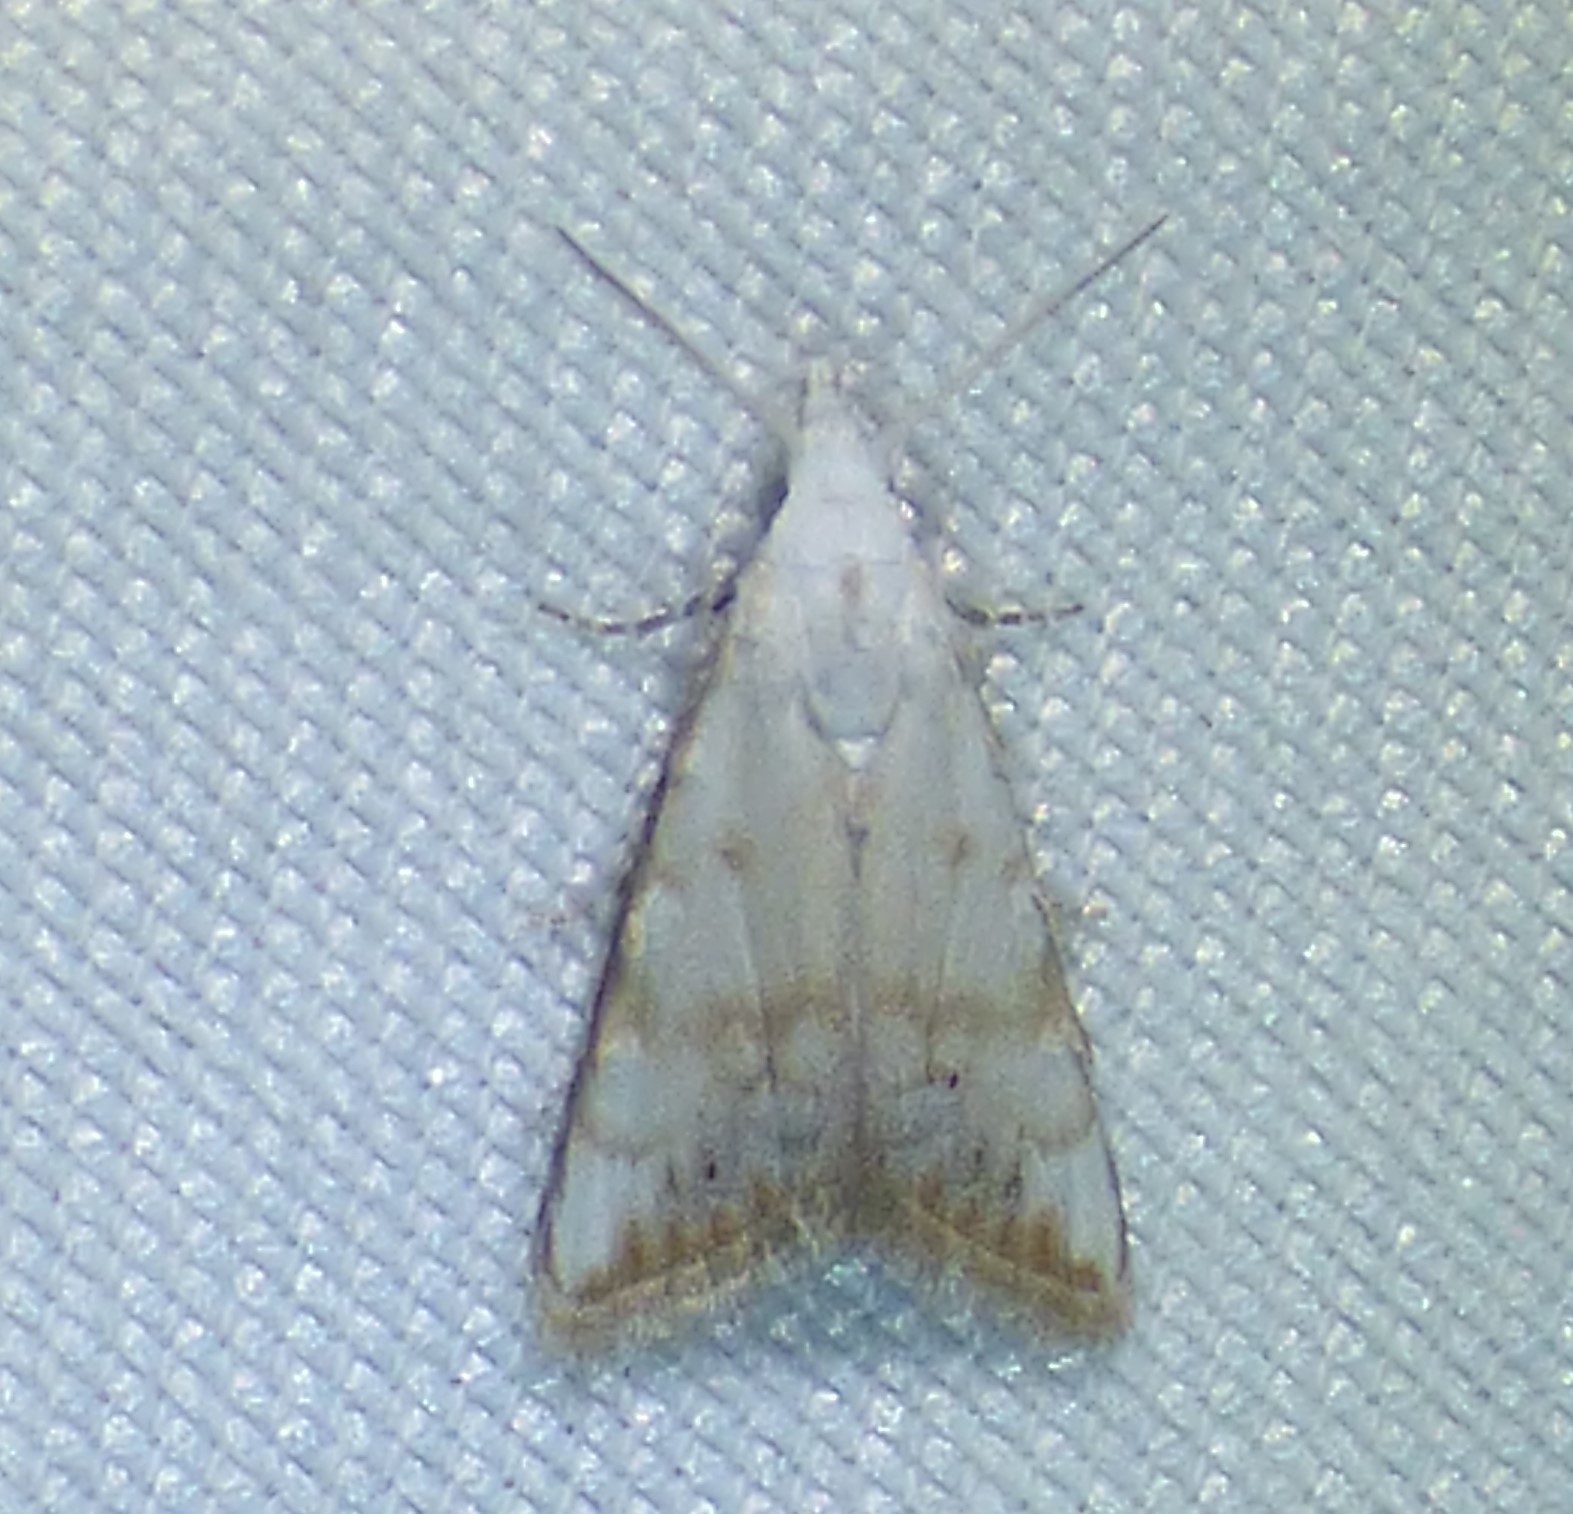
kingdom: Animalia
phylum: Arthropoda
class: Insecta
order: Lepidoptera
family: Nolidae
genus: Nola
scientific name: Nola cereella
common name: Sorghum webworm moth
